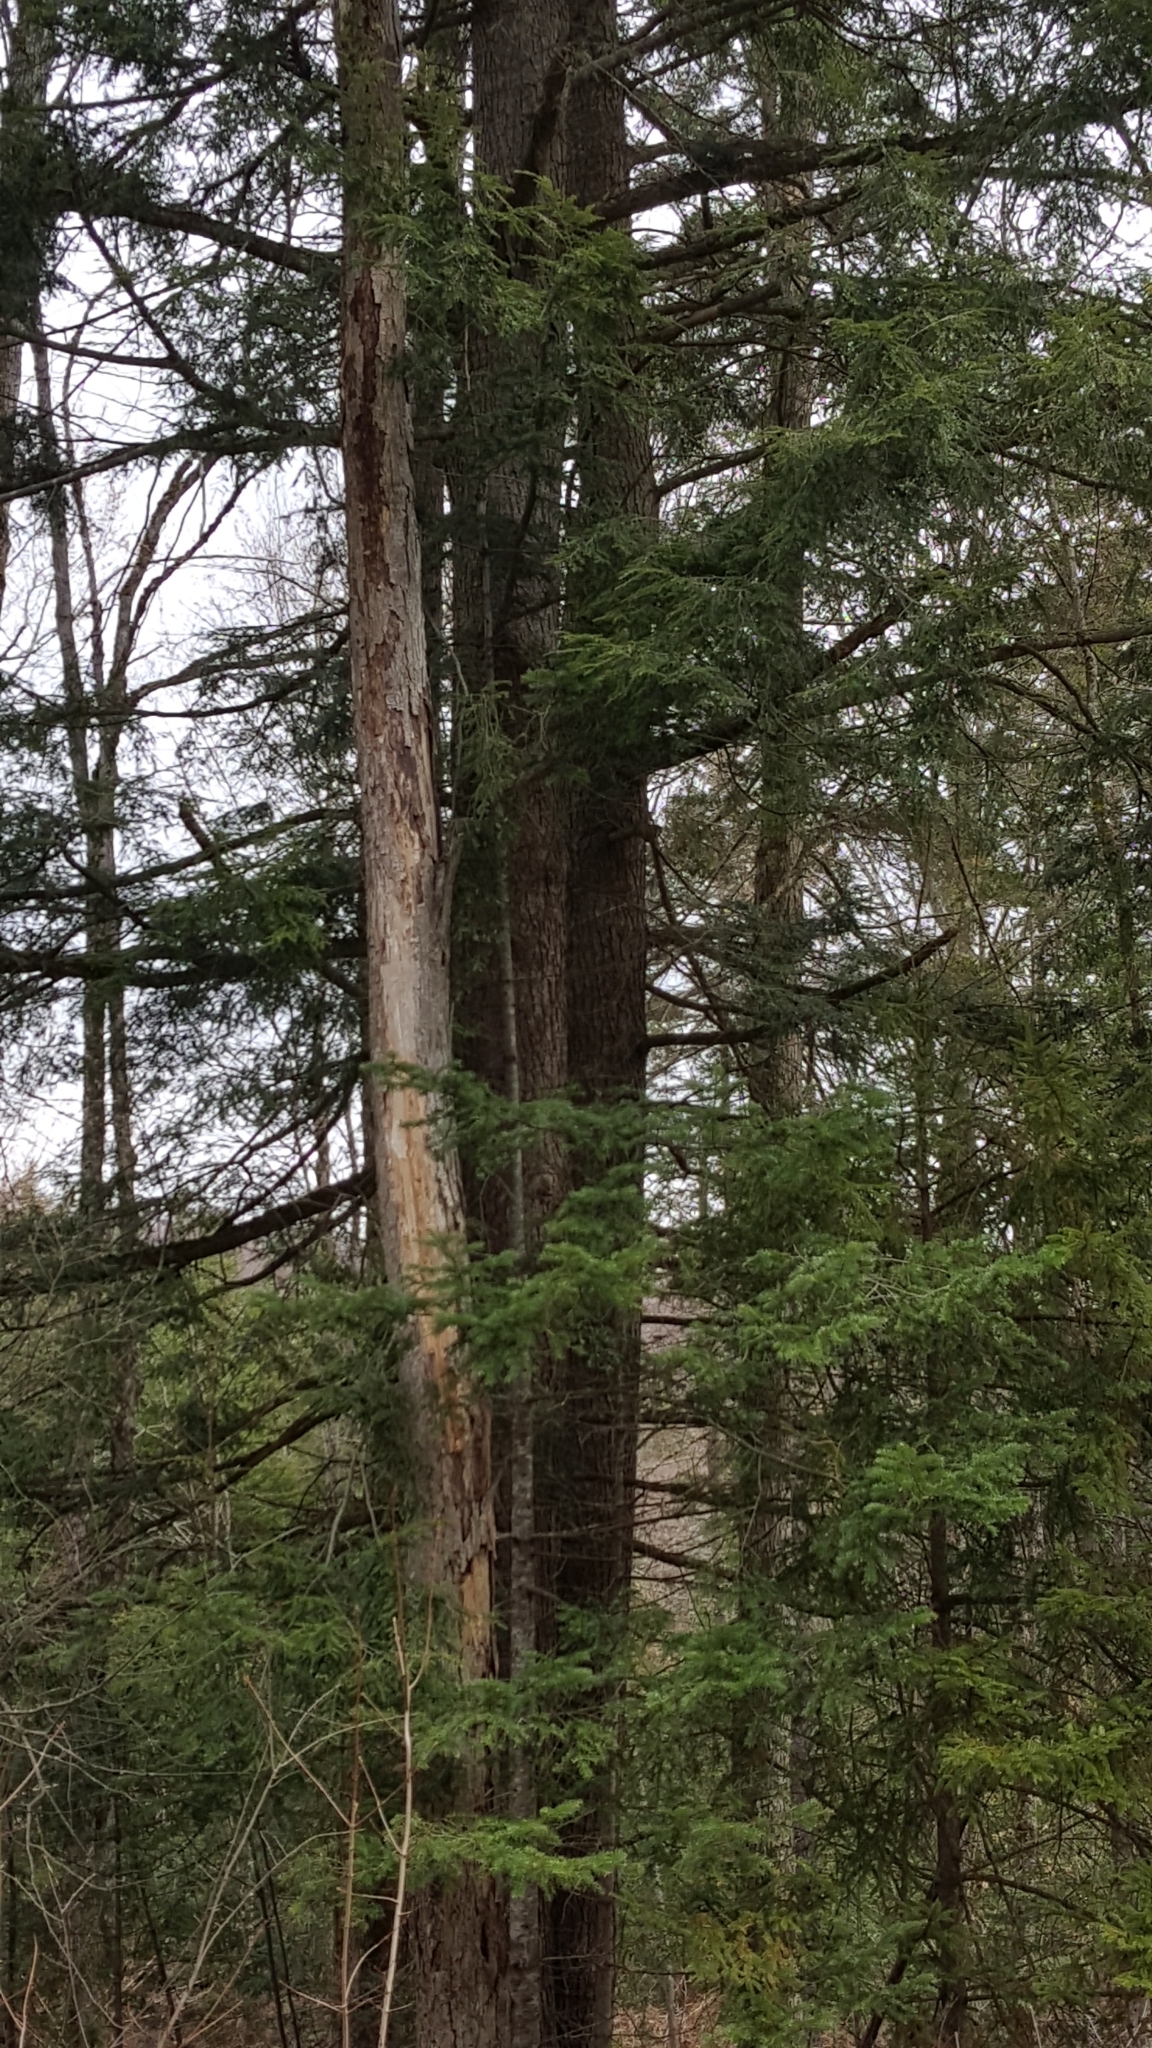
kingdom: Plantae
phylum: Tracheophyta
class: Pinopsida
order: Pinales
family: Pinaceae
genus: Tsuga
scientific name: Tsuga canadensis
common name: Eastern hemlock
